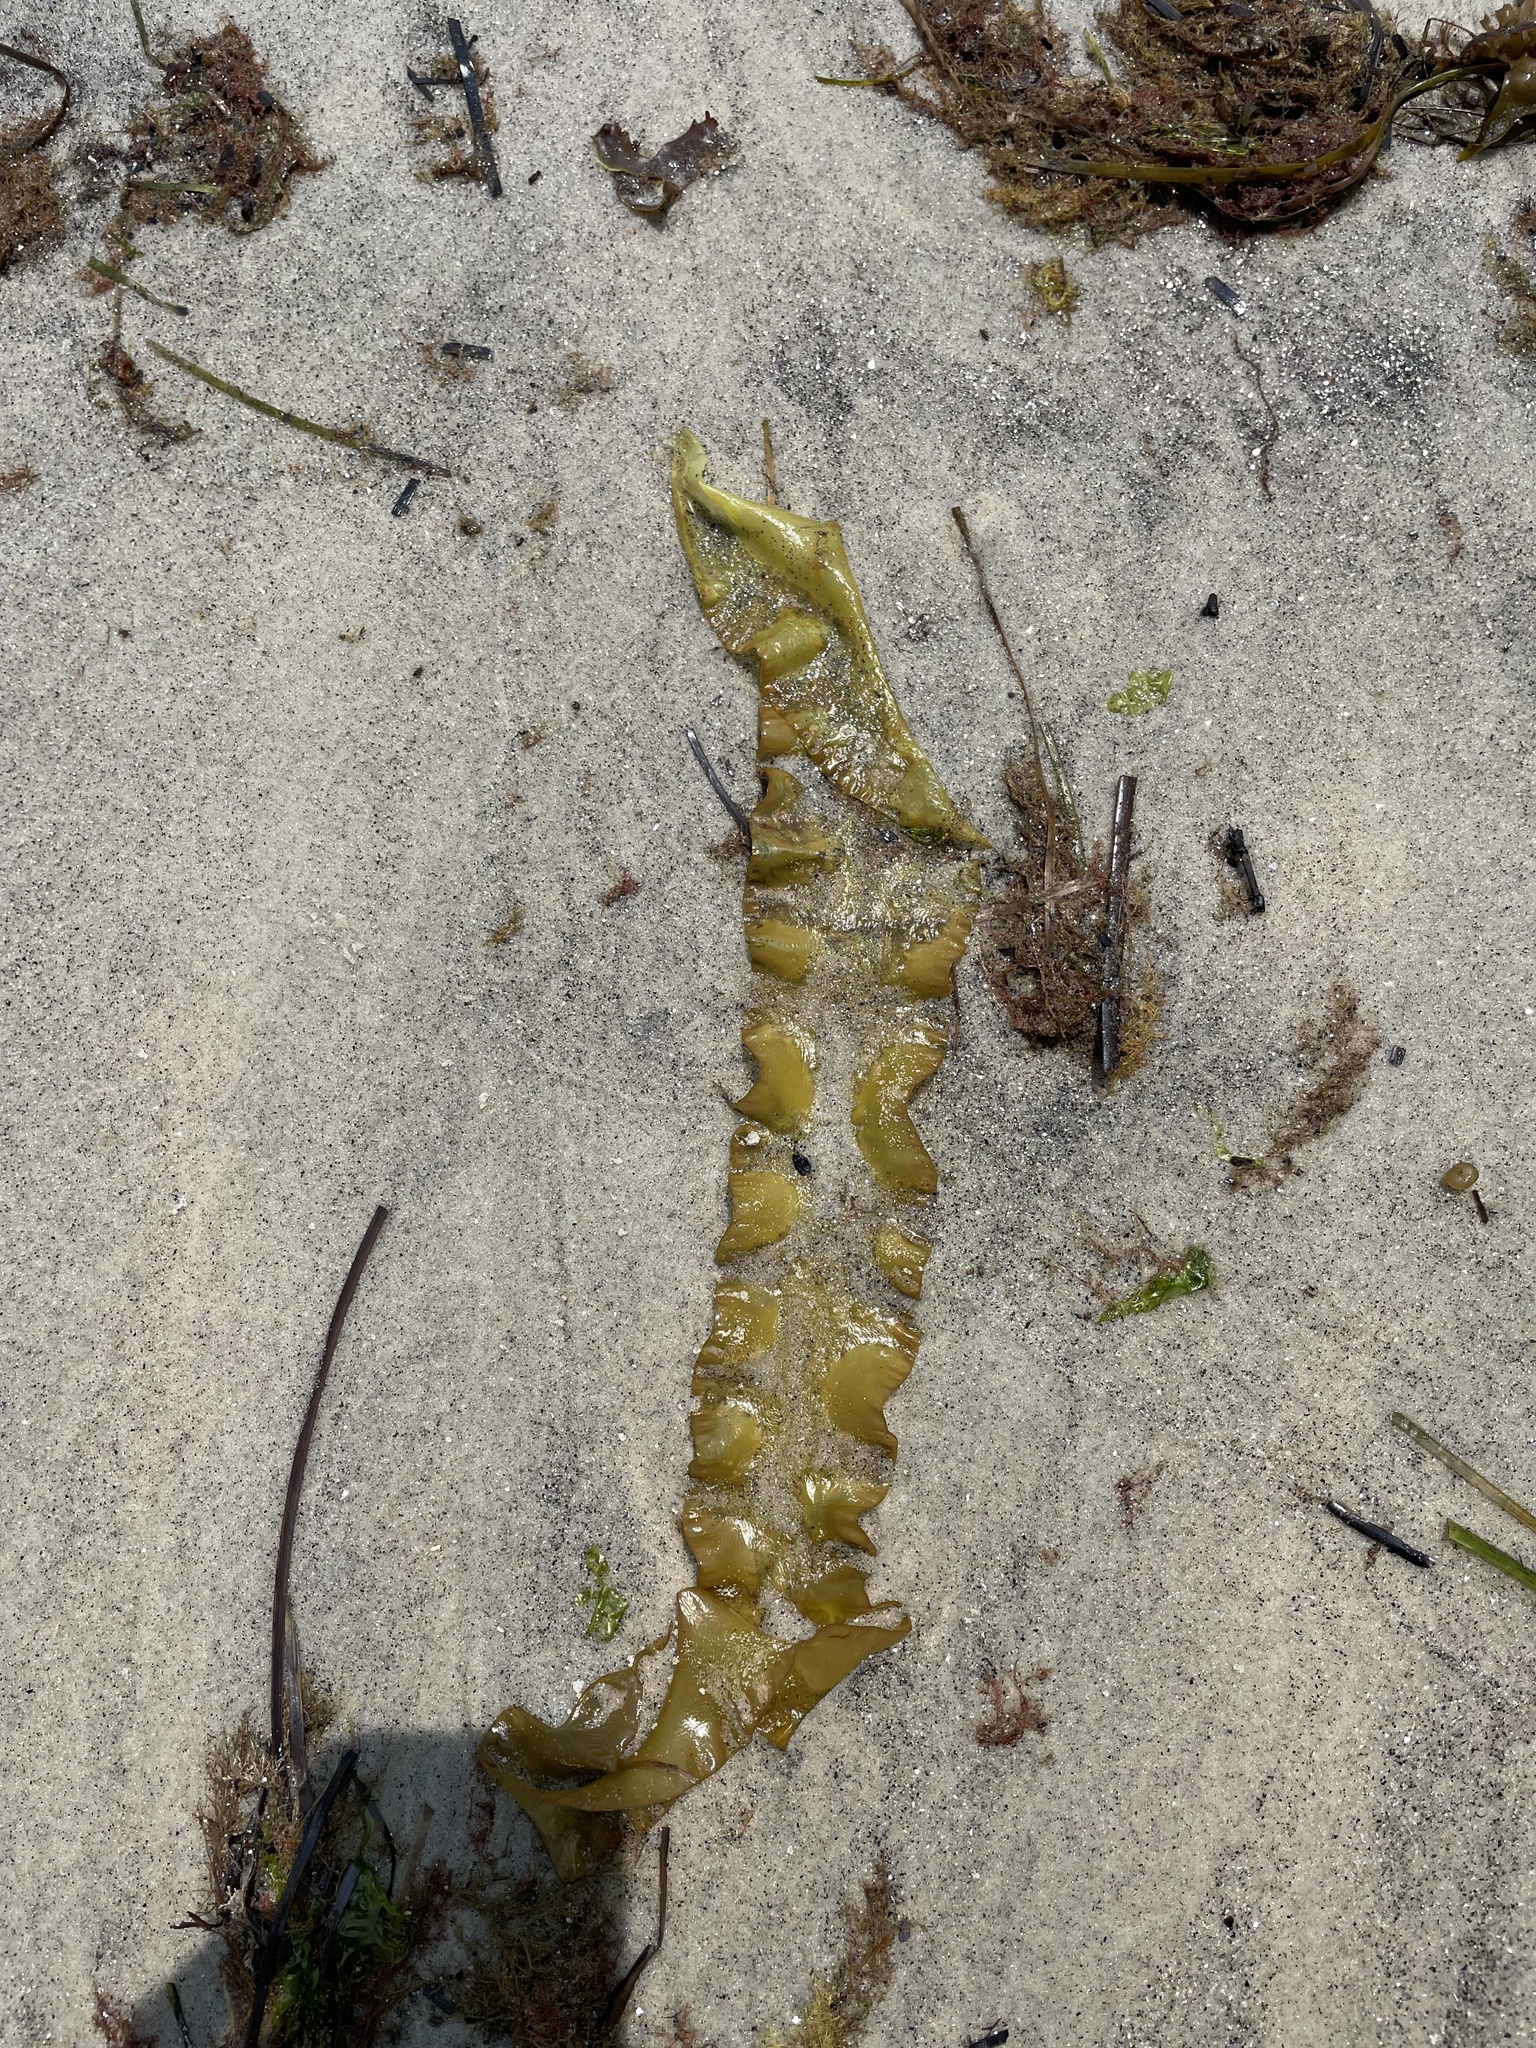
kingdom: Chromista
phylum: Ochrophyta
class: Phaeophyceae
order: Laminariales
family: Laminariaceae
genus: Saccharina
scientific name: Saccharina latissima
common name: Poor man's weather glass
